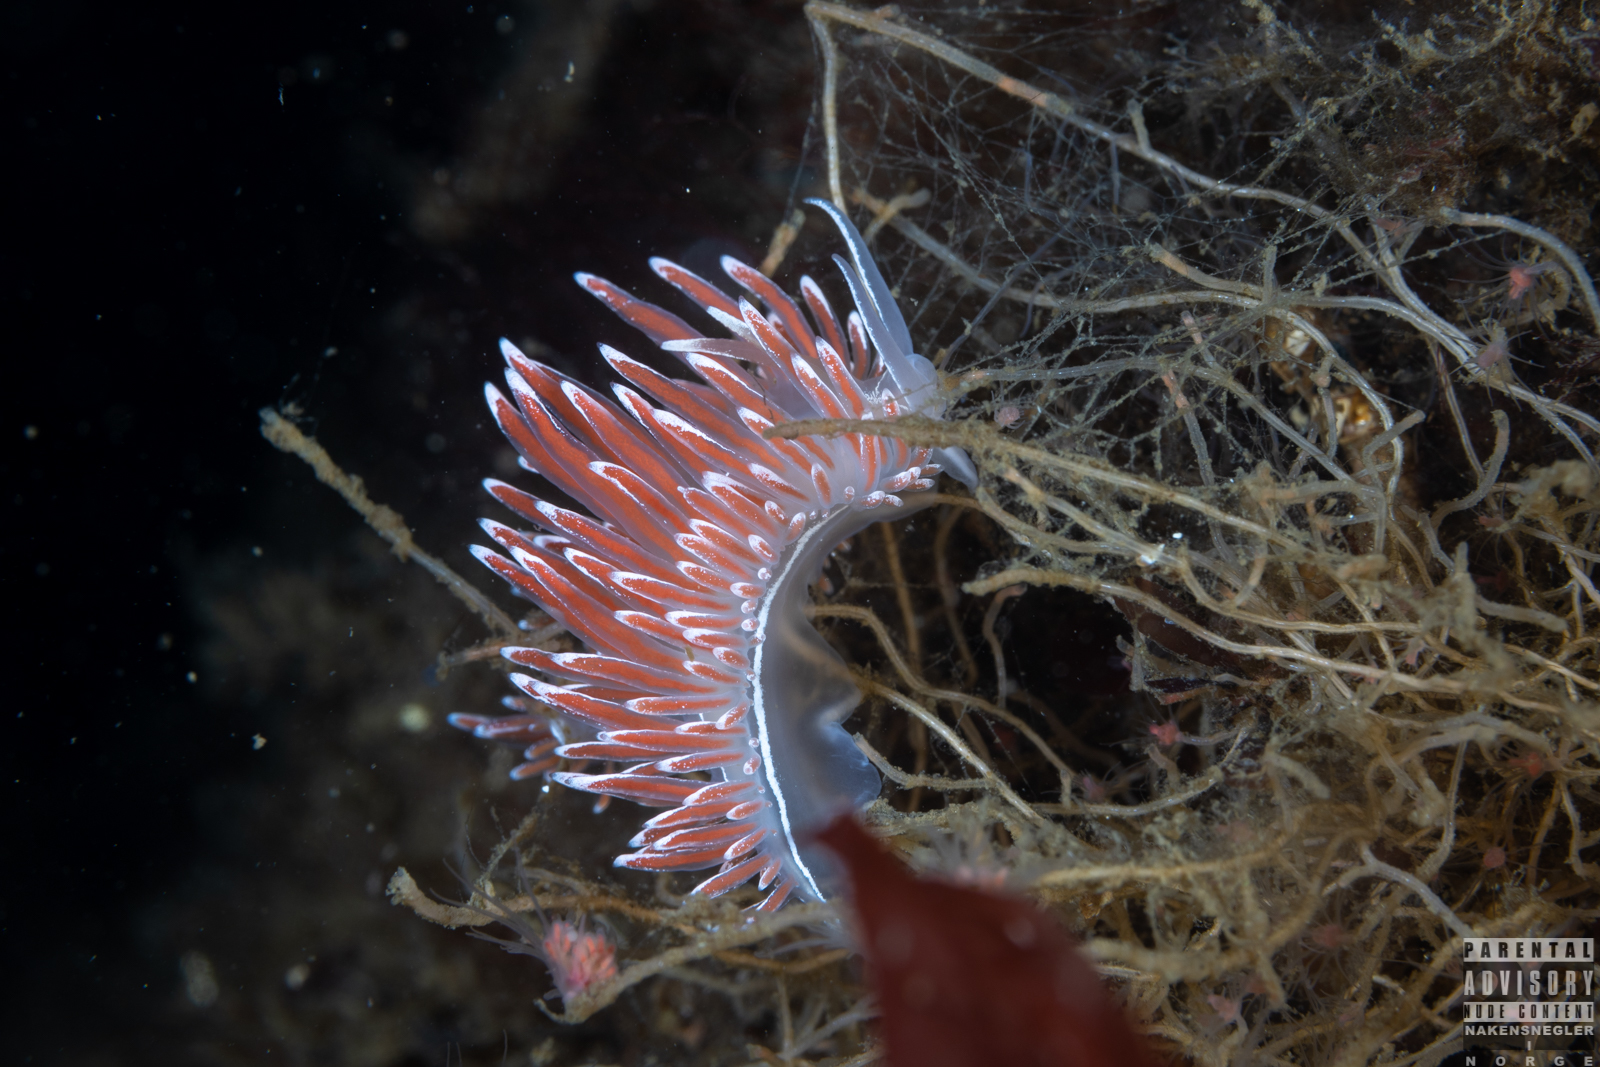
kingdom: Animalia
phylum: Mollusca
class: Gastropoda
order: Nudibranchia
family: Coryphellidae
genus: Coryphella
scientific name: Coryphella lineata
